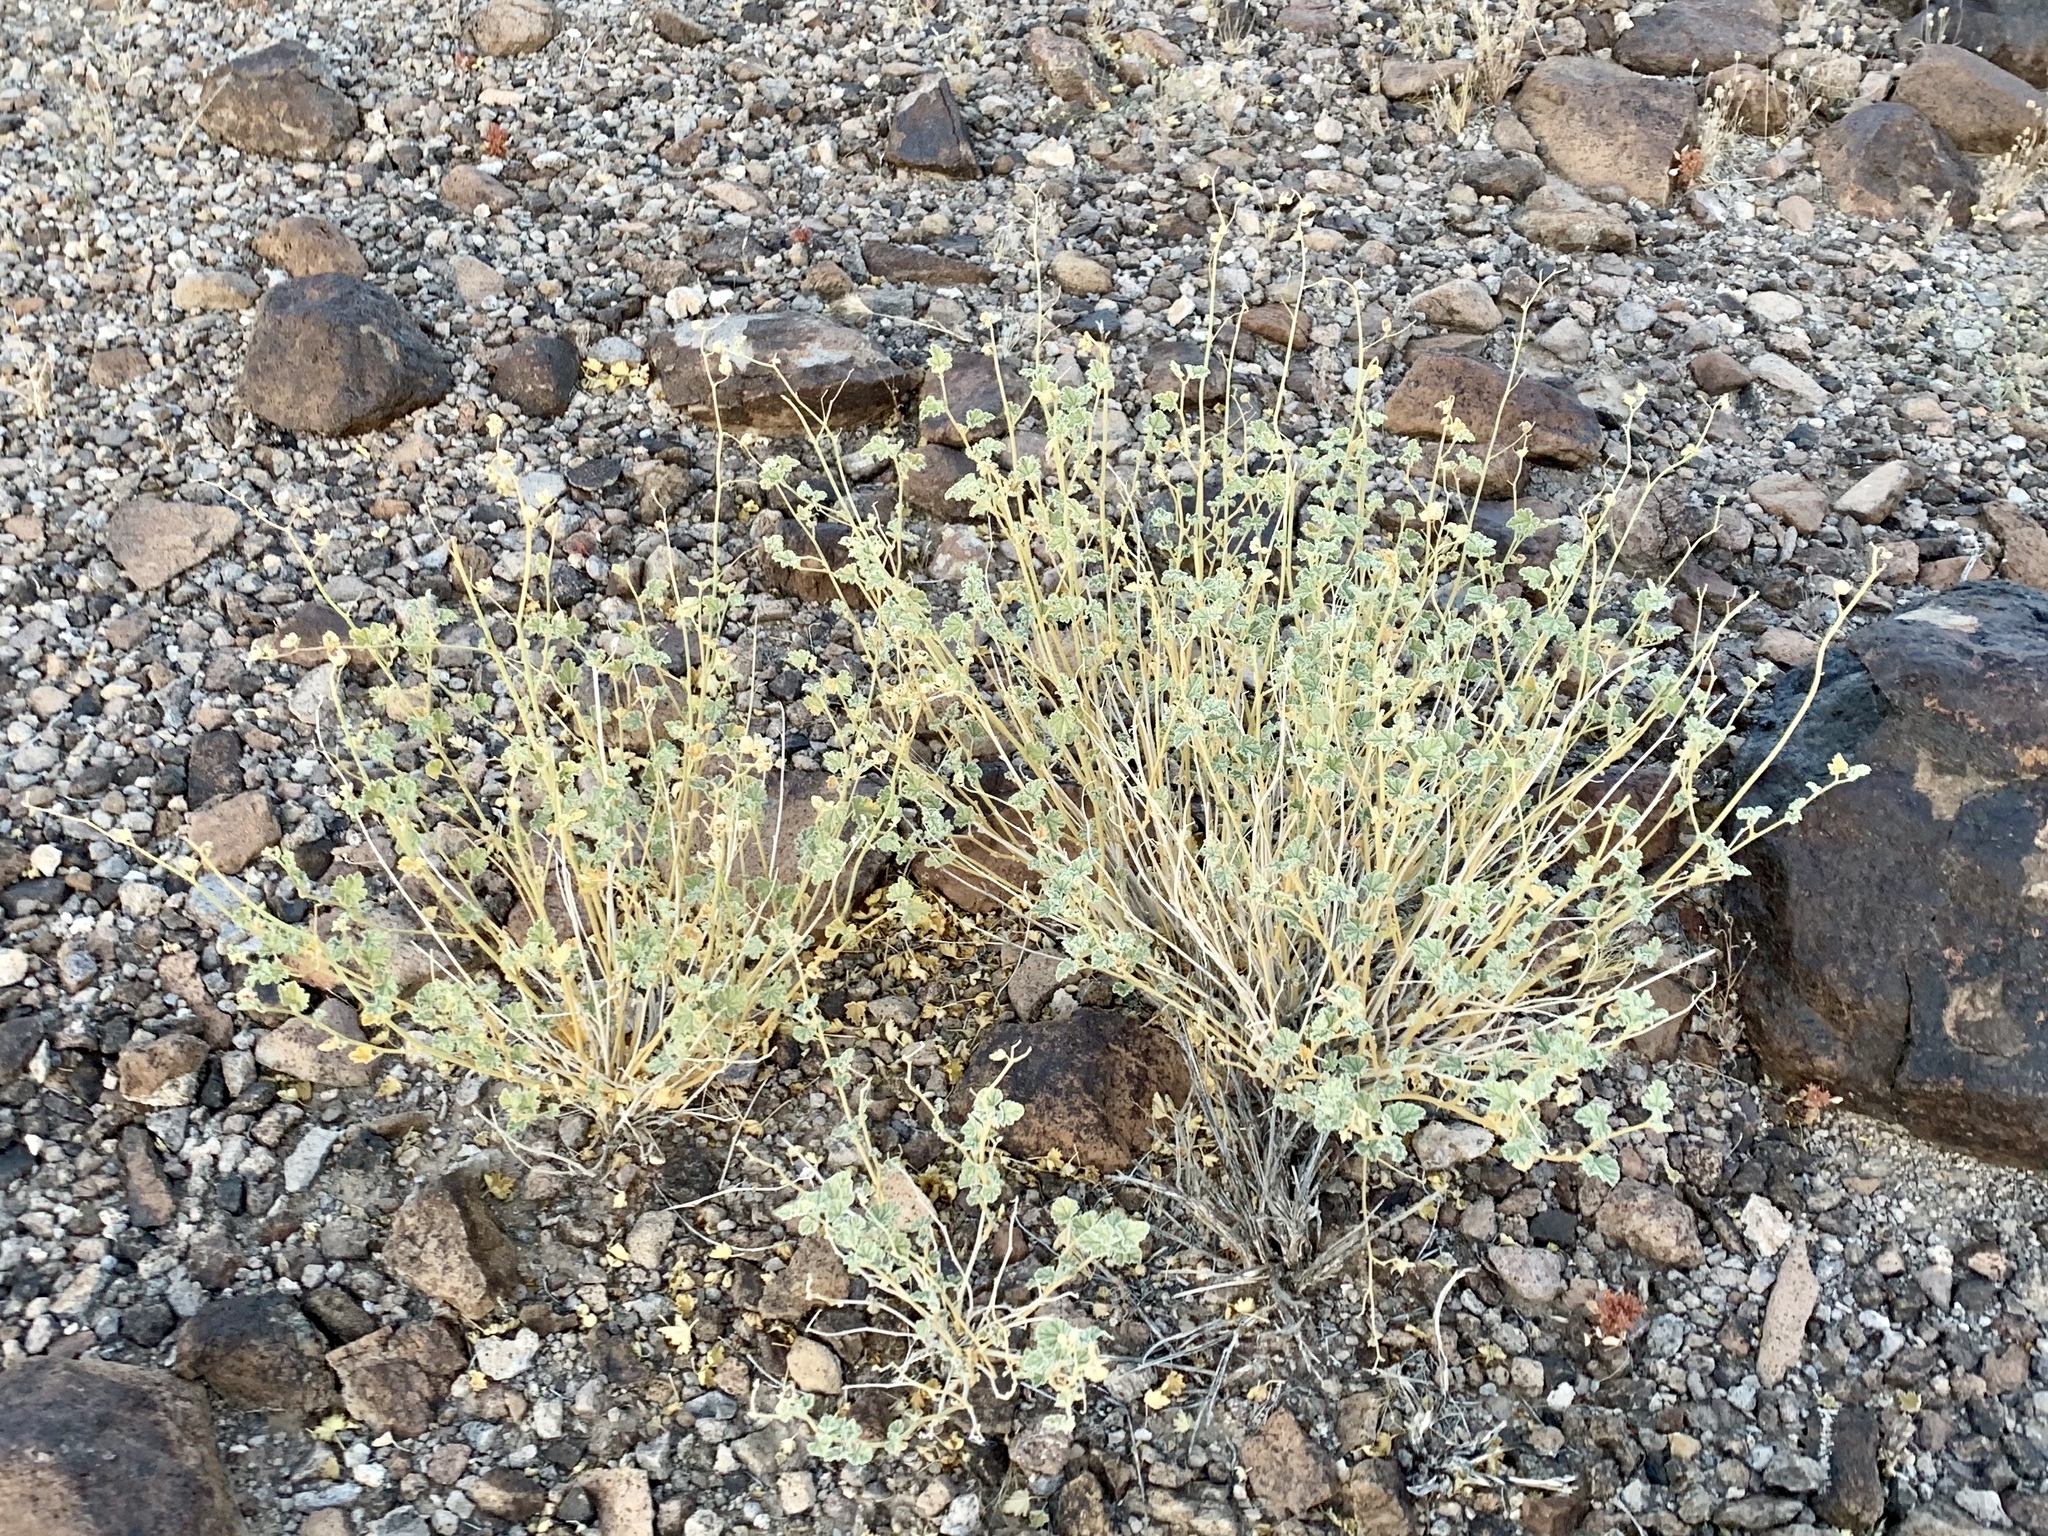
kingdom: Plantae
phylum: Tracheophyta
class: Magnoliopsida
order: Malvales
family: Malvaceae
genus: Sphaeralcea
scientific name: Sphaeralcea ambigua
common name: Apricot globe-mallow
